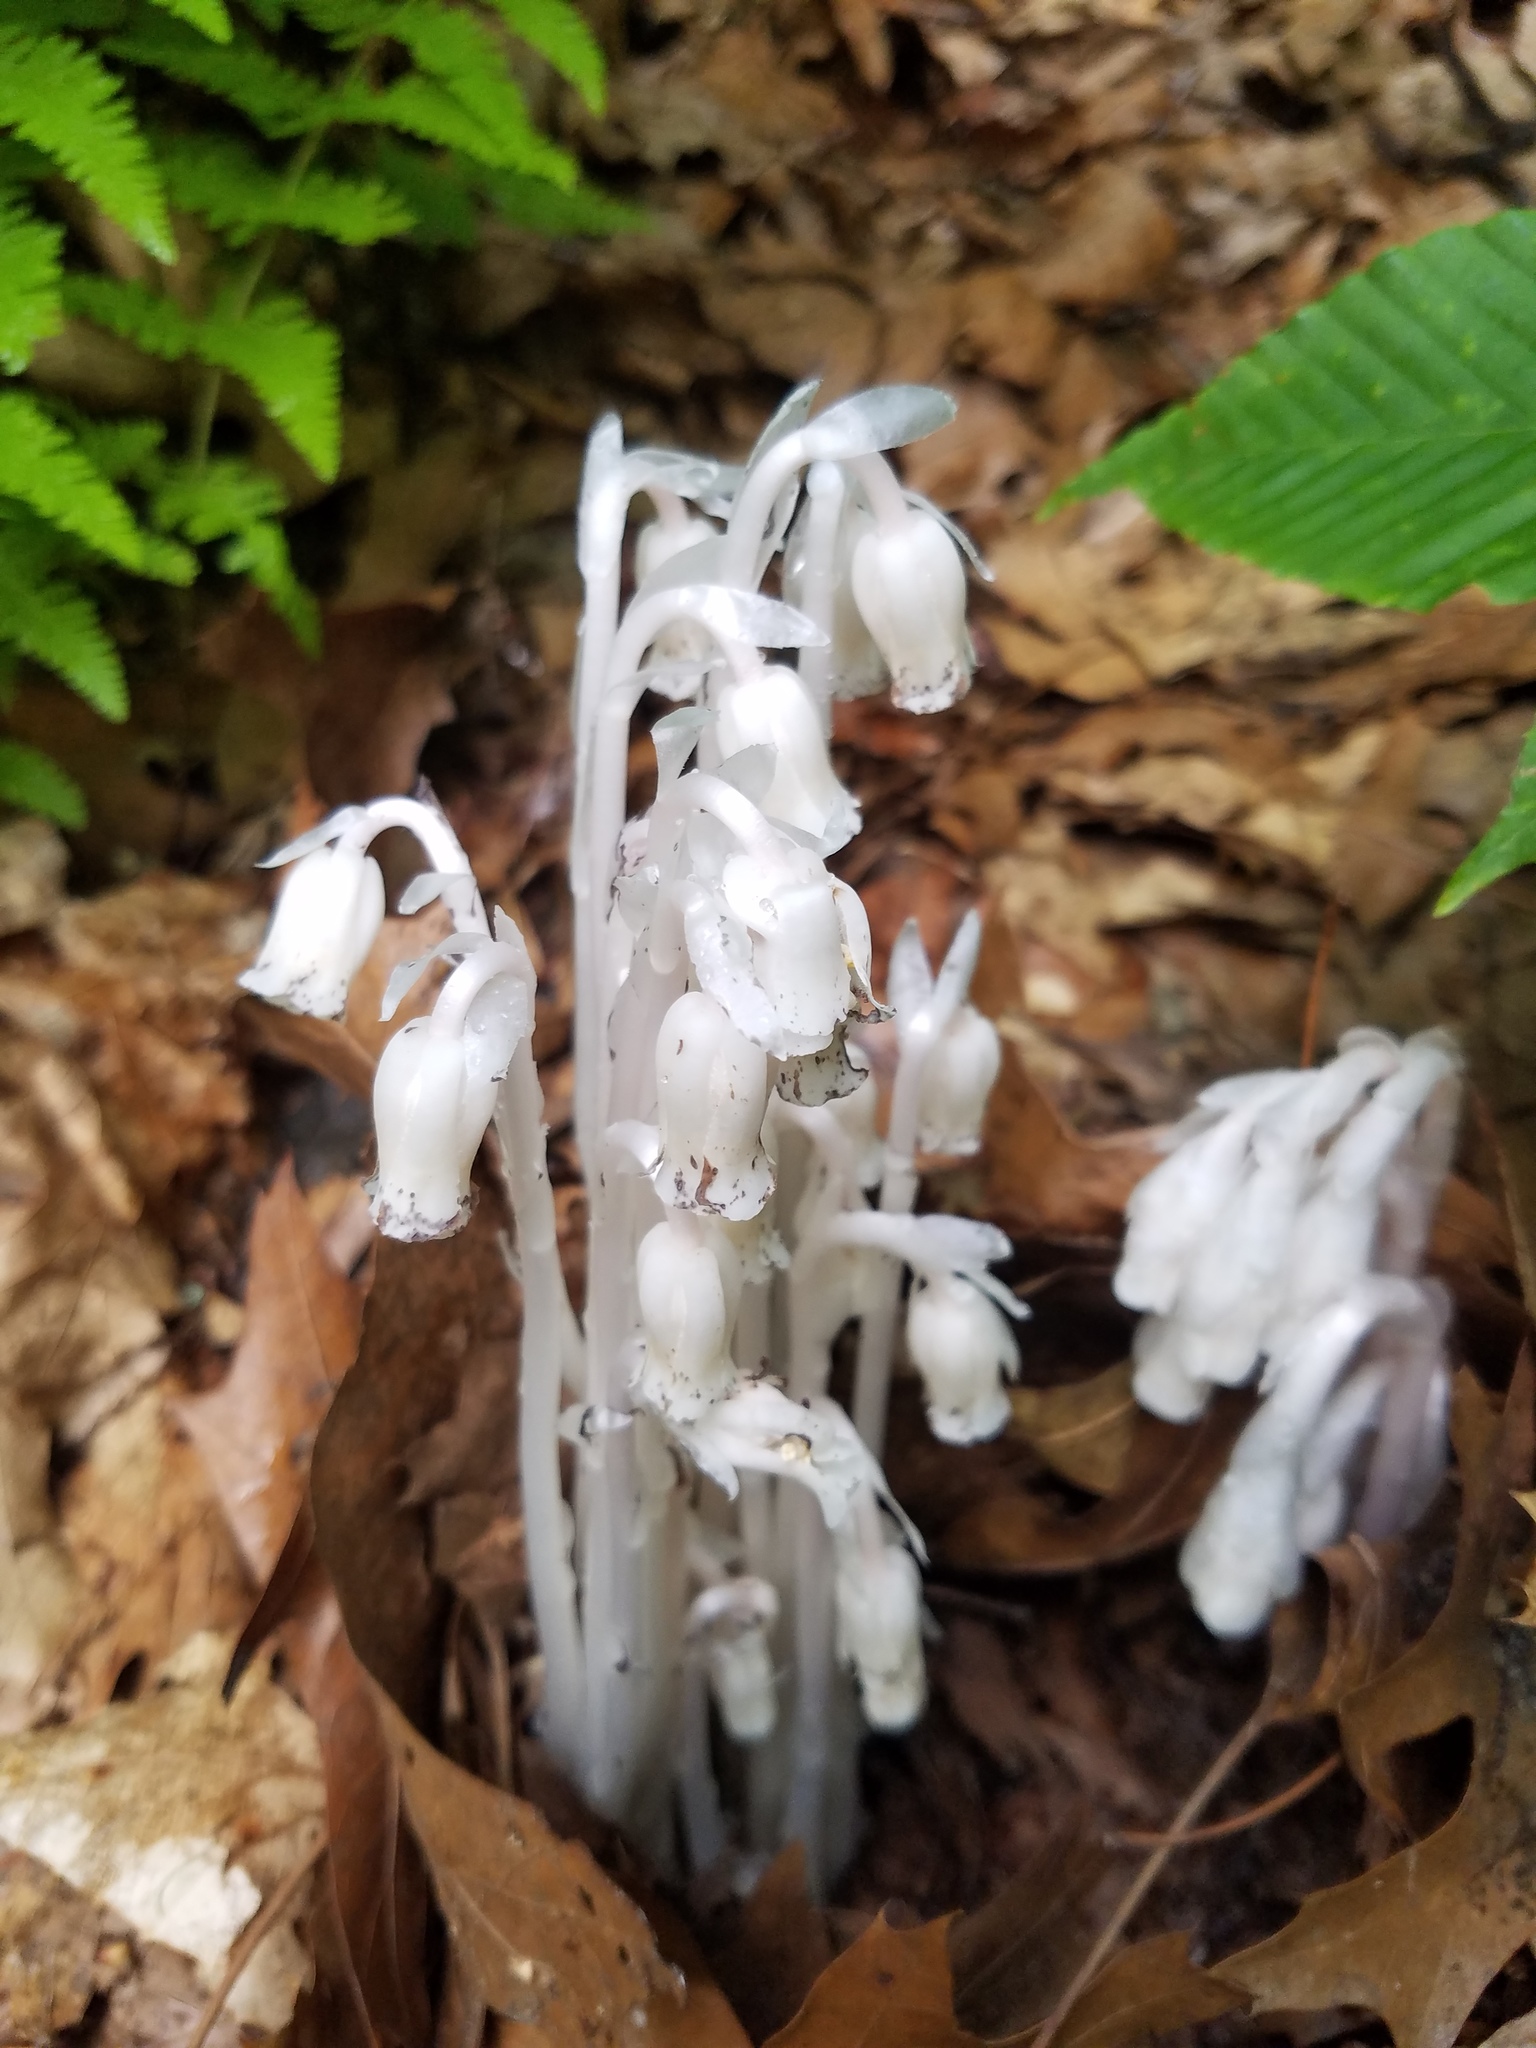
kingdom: Plantae
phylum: Tracheophyta
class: Magnoliopsida
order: Ericales
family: Ericaceae
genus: Monotropa
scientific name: Monotropa uniflora
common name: Convulsion root
